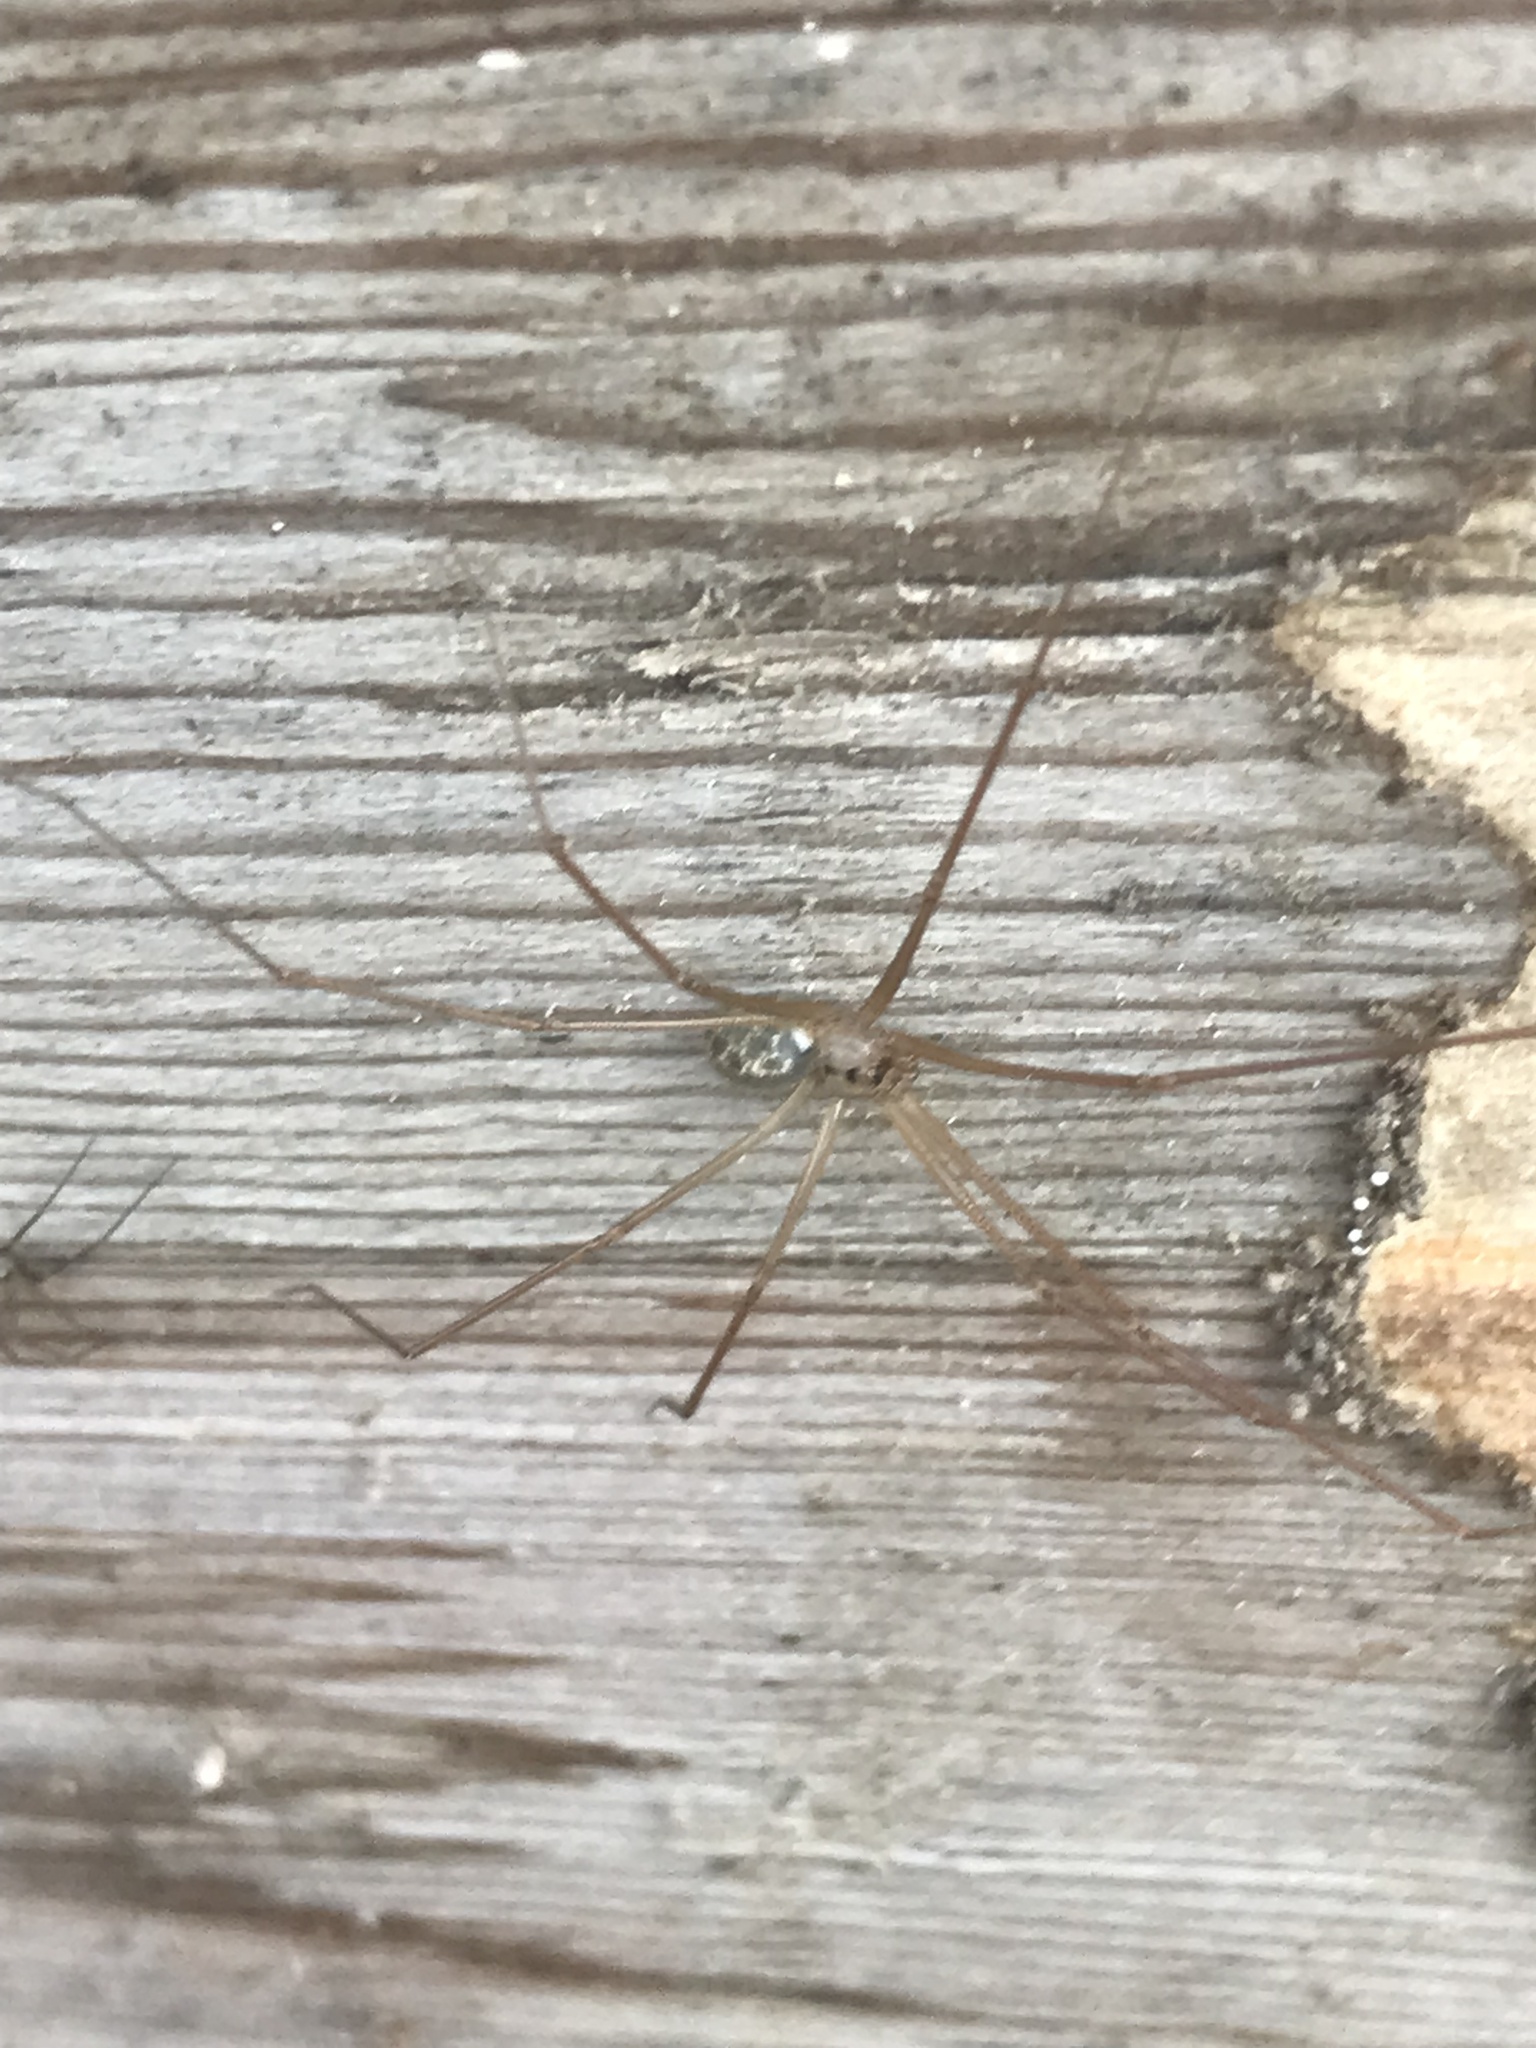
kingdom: Animalia
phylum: Arthropoda
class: Arachnida
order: Araneae
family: Pholcidae
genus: Psilochorus
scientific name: Psilochorus hesperus
